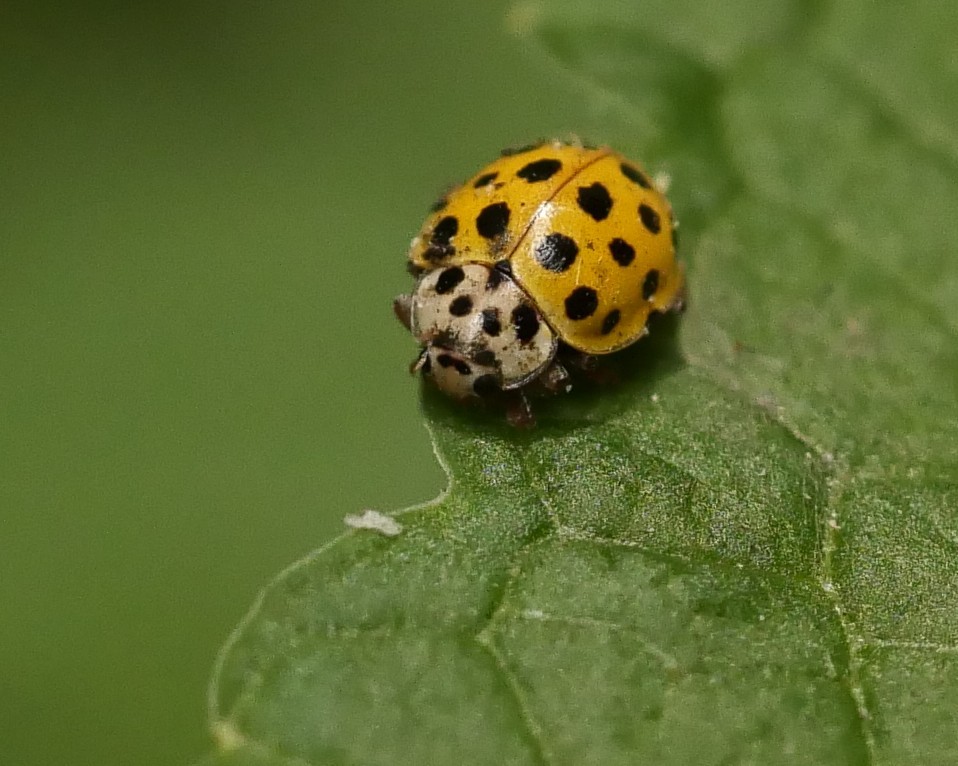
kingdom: Animalia
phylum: Arthropoda
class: Insecta
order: Coleoptera
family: Coccinellidae
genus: Psyllobora
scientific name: Psyllobora vigintiduopunctata
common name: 22-spot ladybird
